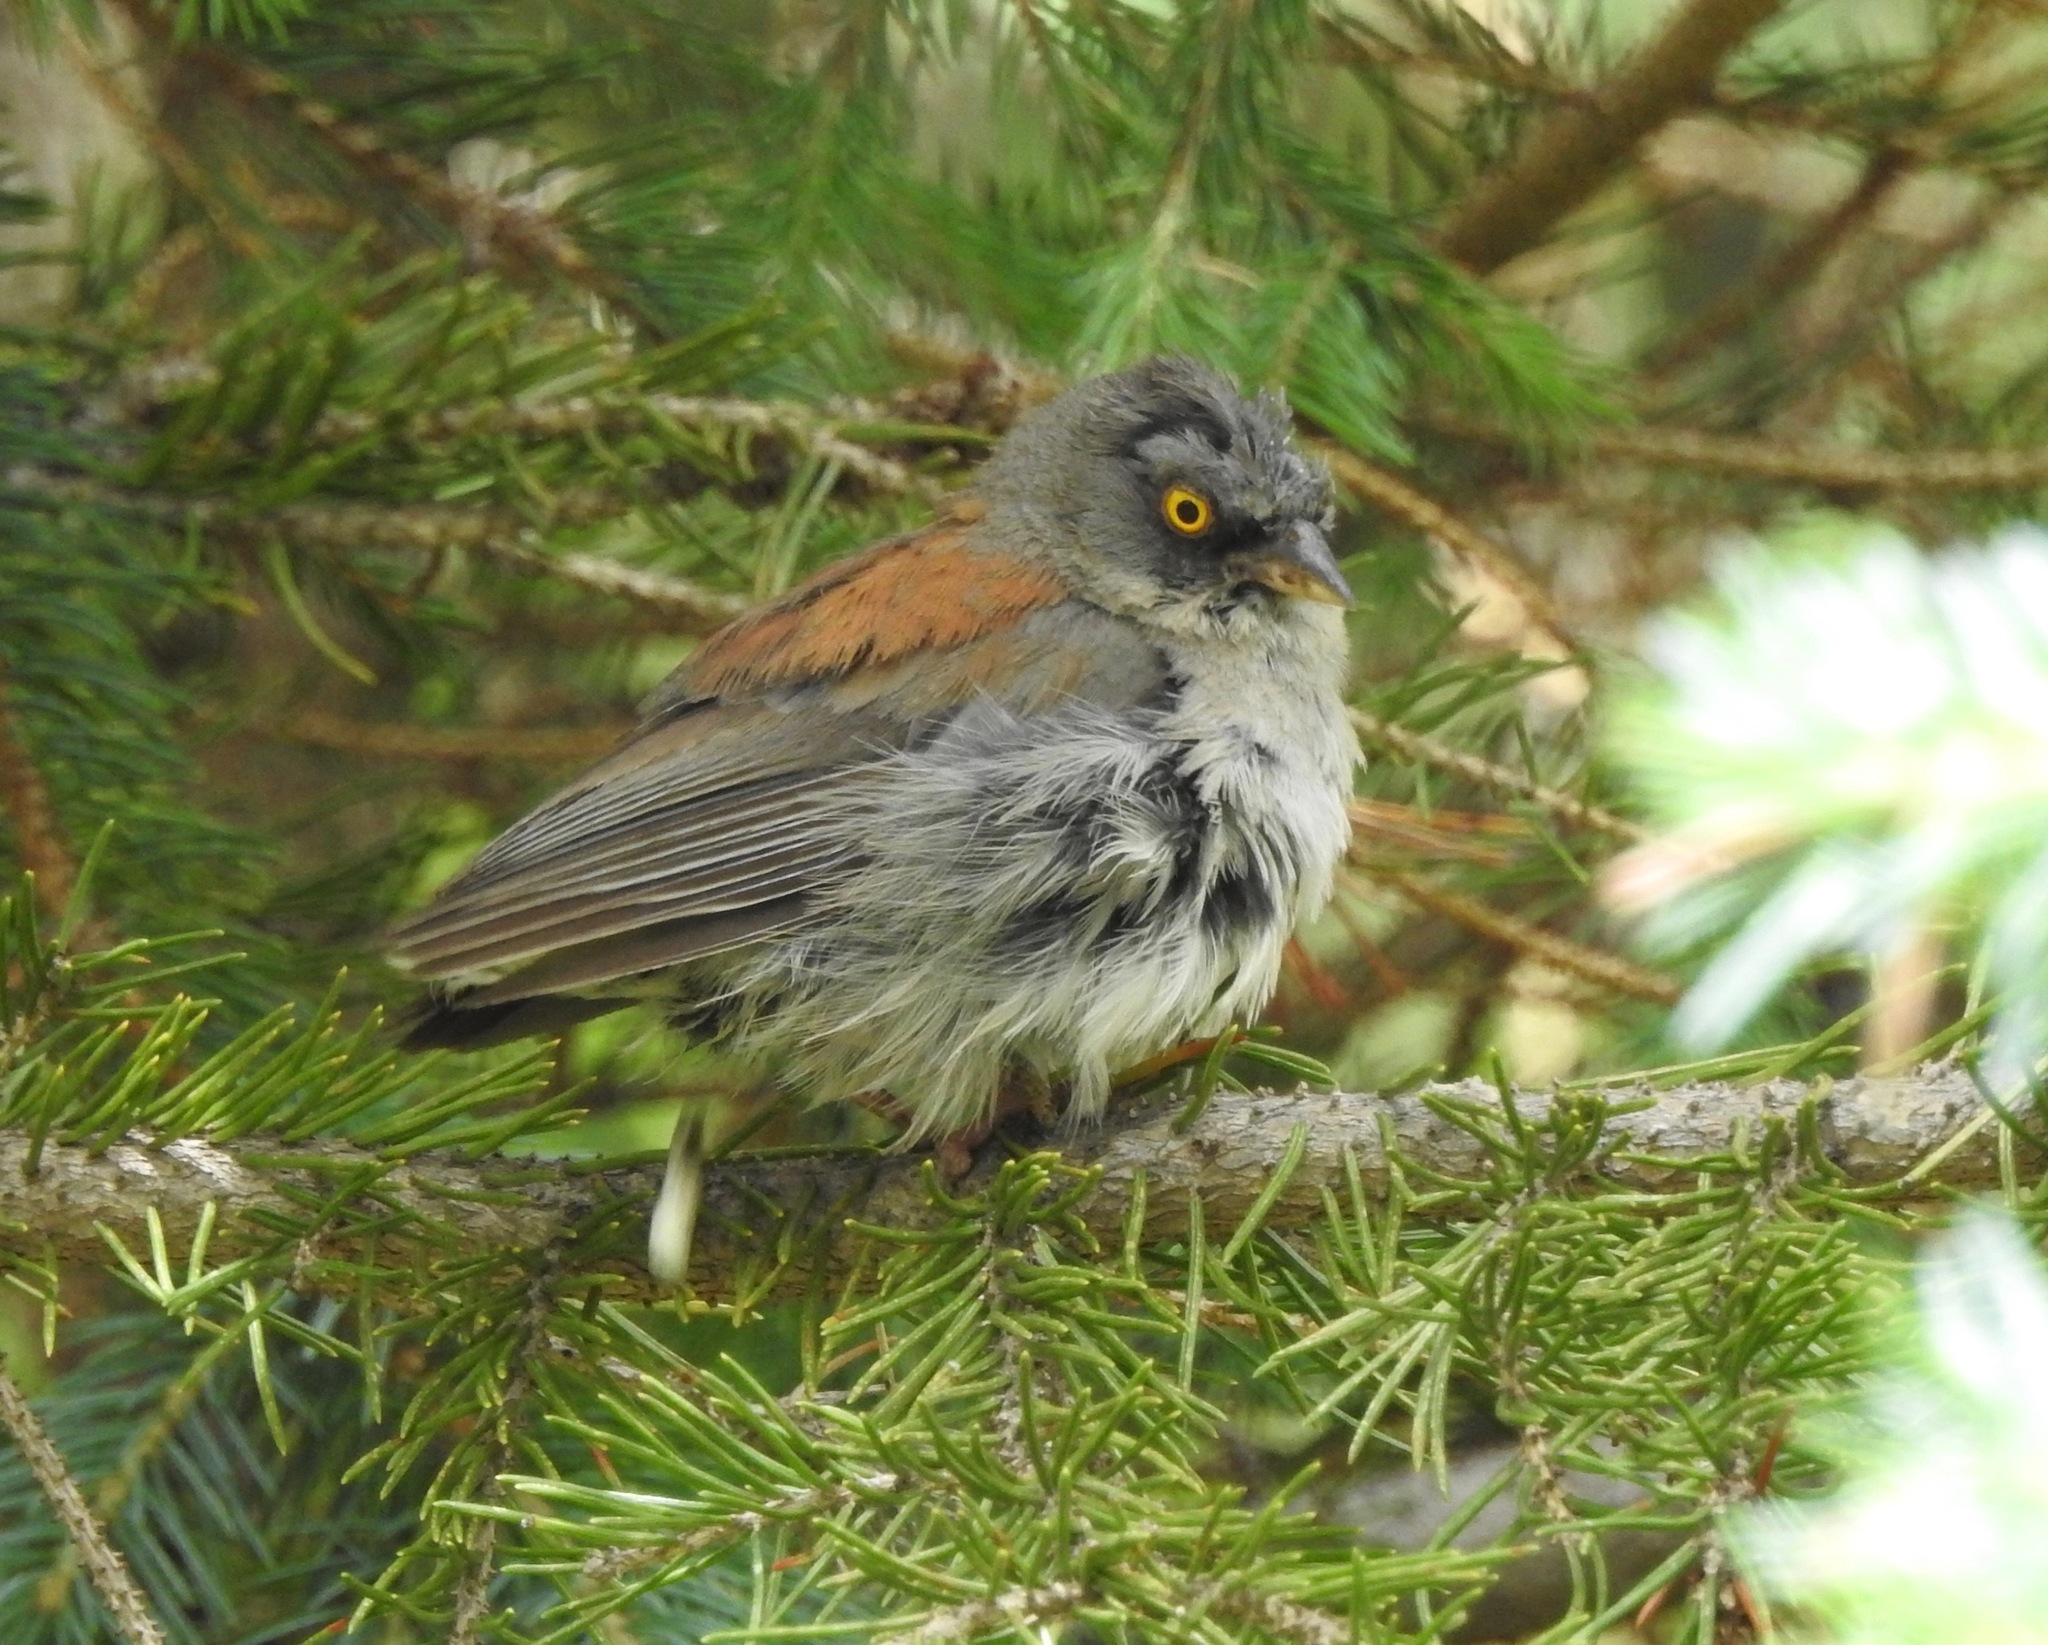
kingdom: Animalia
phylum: Chordata
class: Aves
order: Passeriformes
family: Passerellidae
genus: Junco
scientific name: Junco phaeonotus
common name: Yellow-eyed junco
